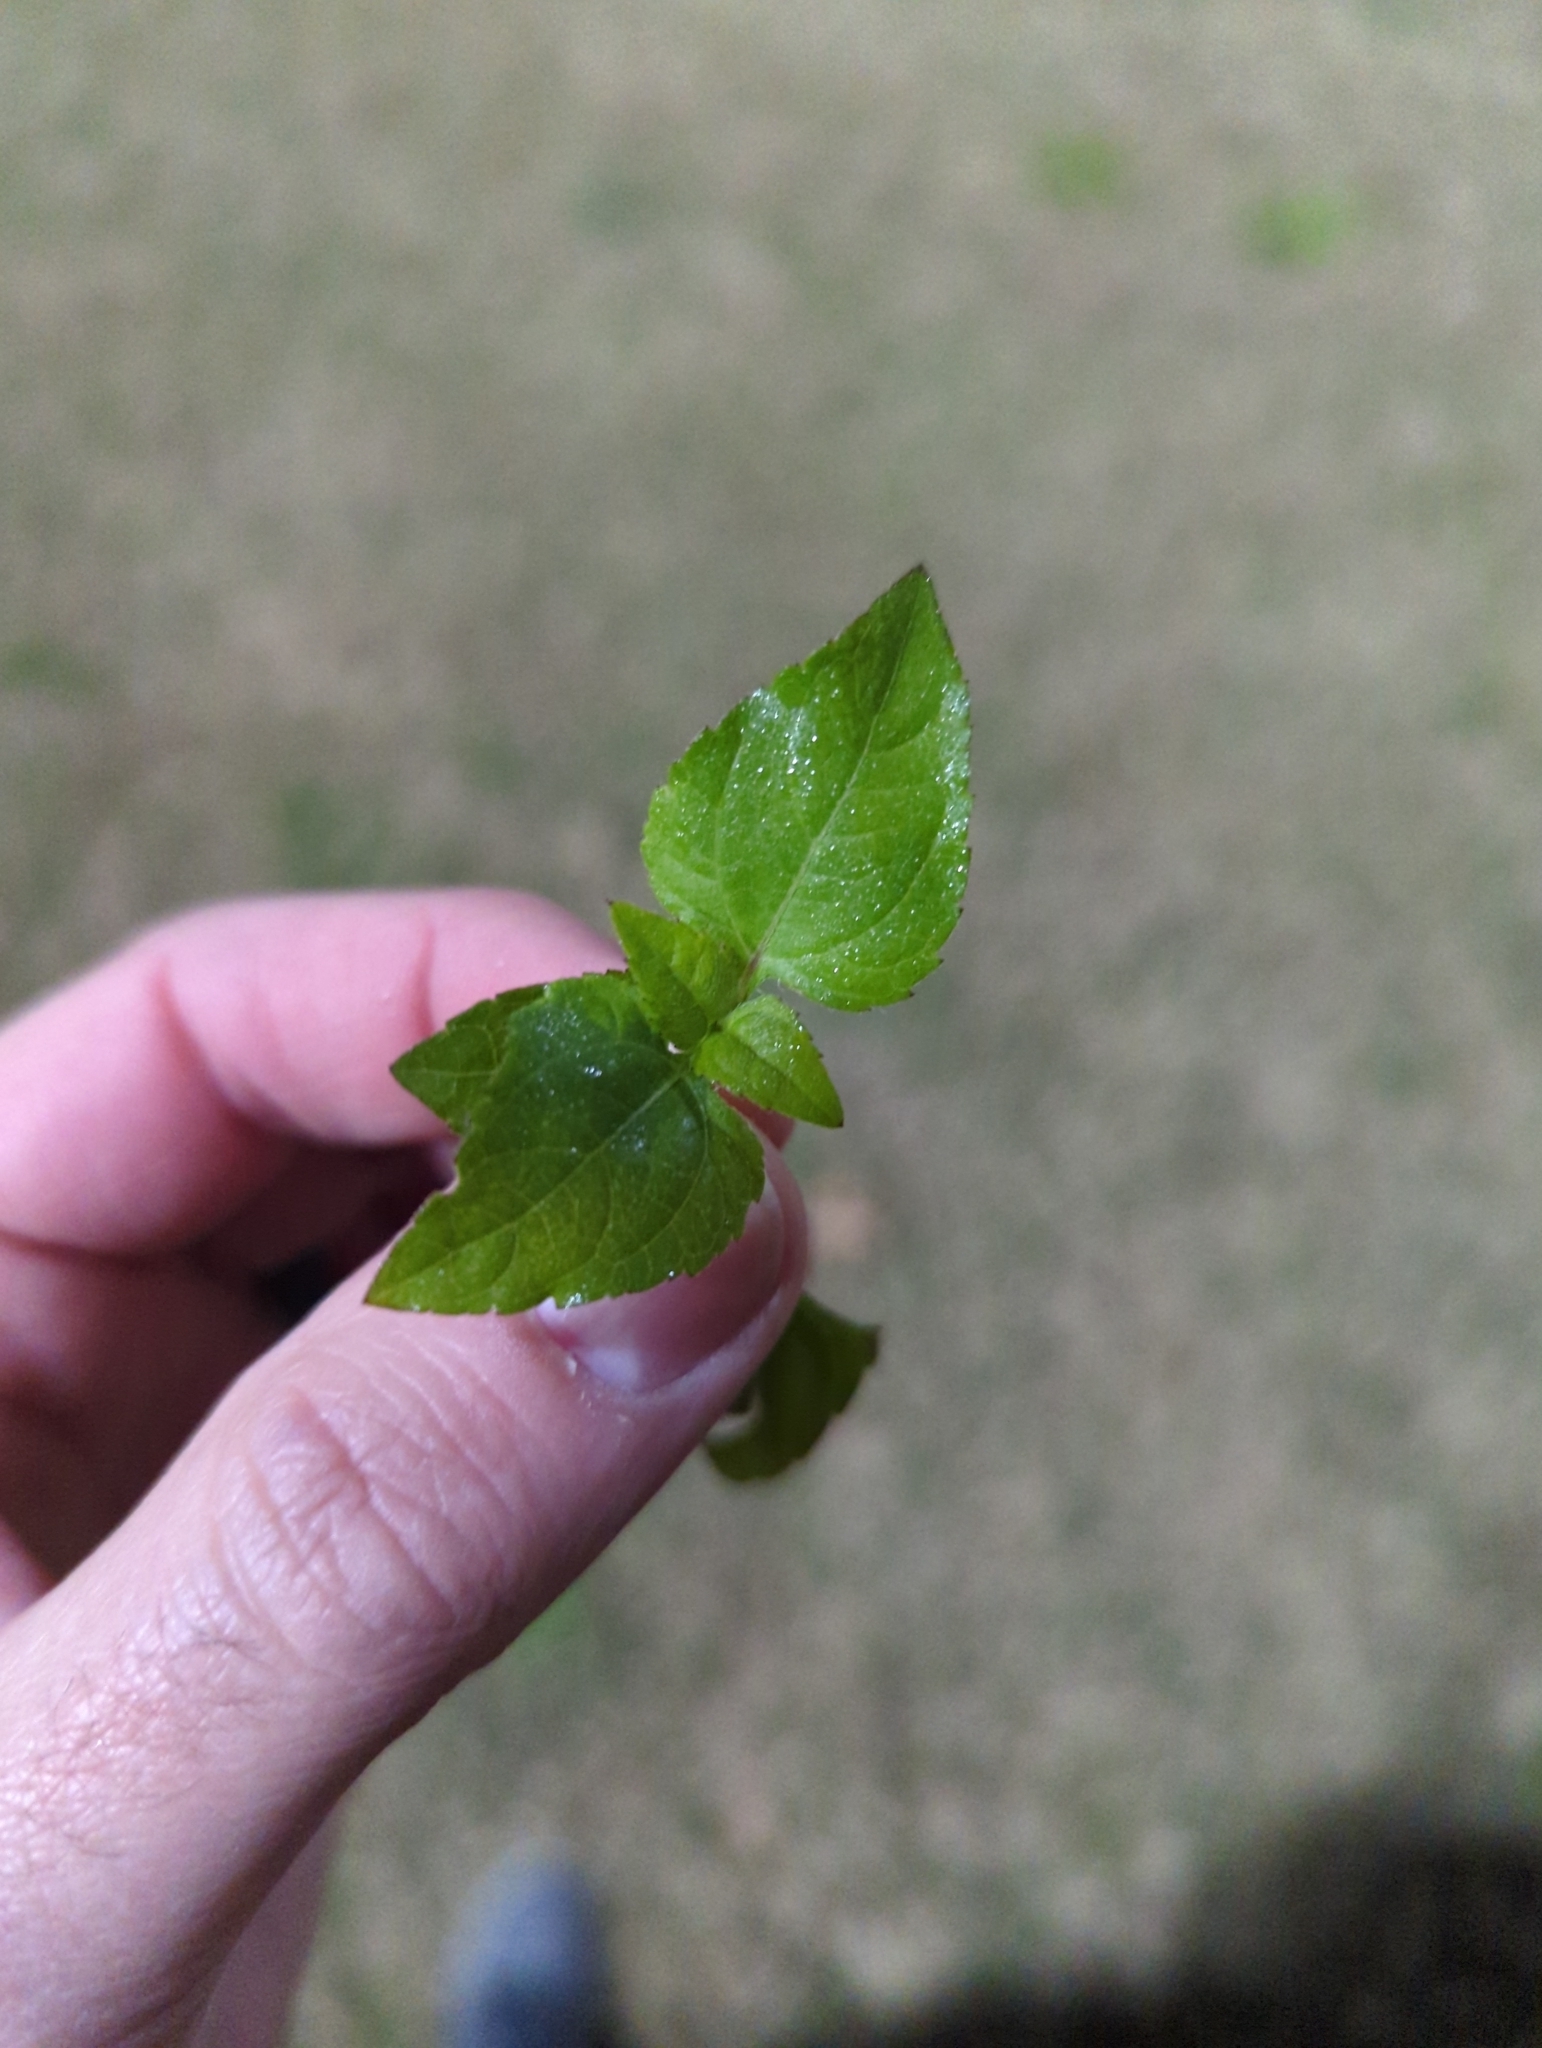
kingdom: Plantae
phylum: Tracheophyta
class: Magnoliopsida
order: Asterales
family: Asteraceae
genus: Calyptocarpus
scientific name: Calyptocarpus vialis
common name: Straggler daisy
